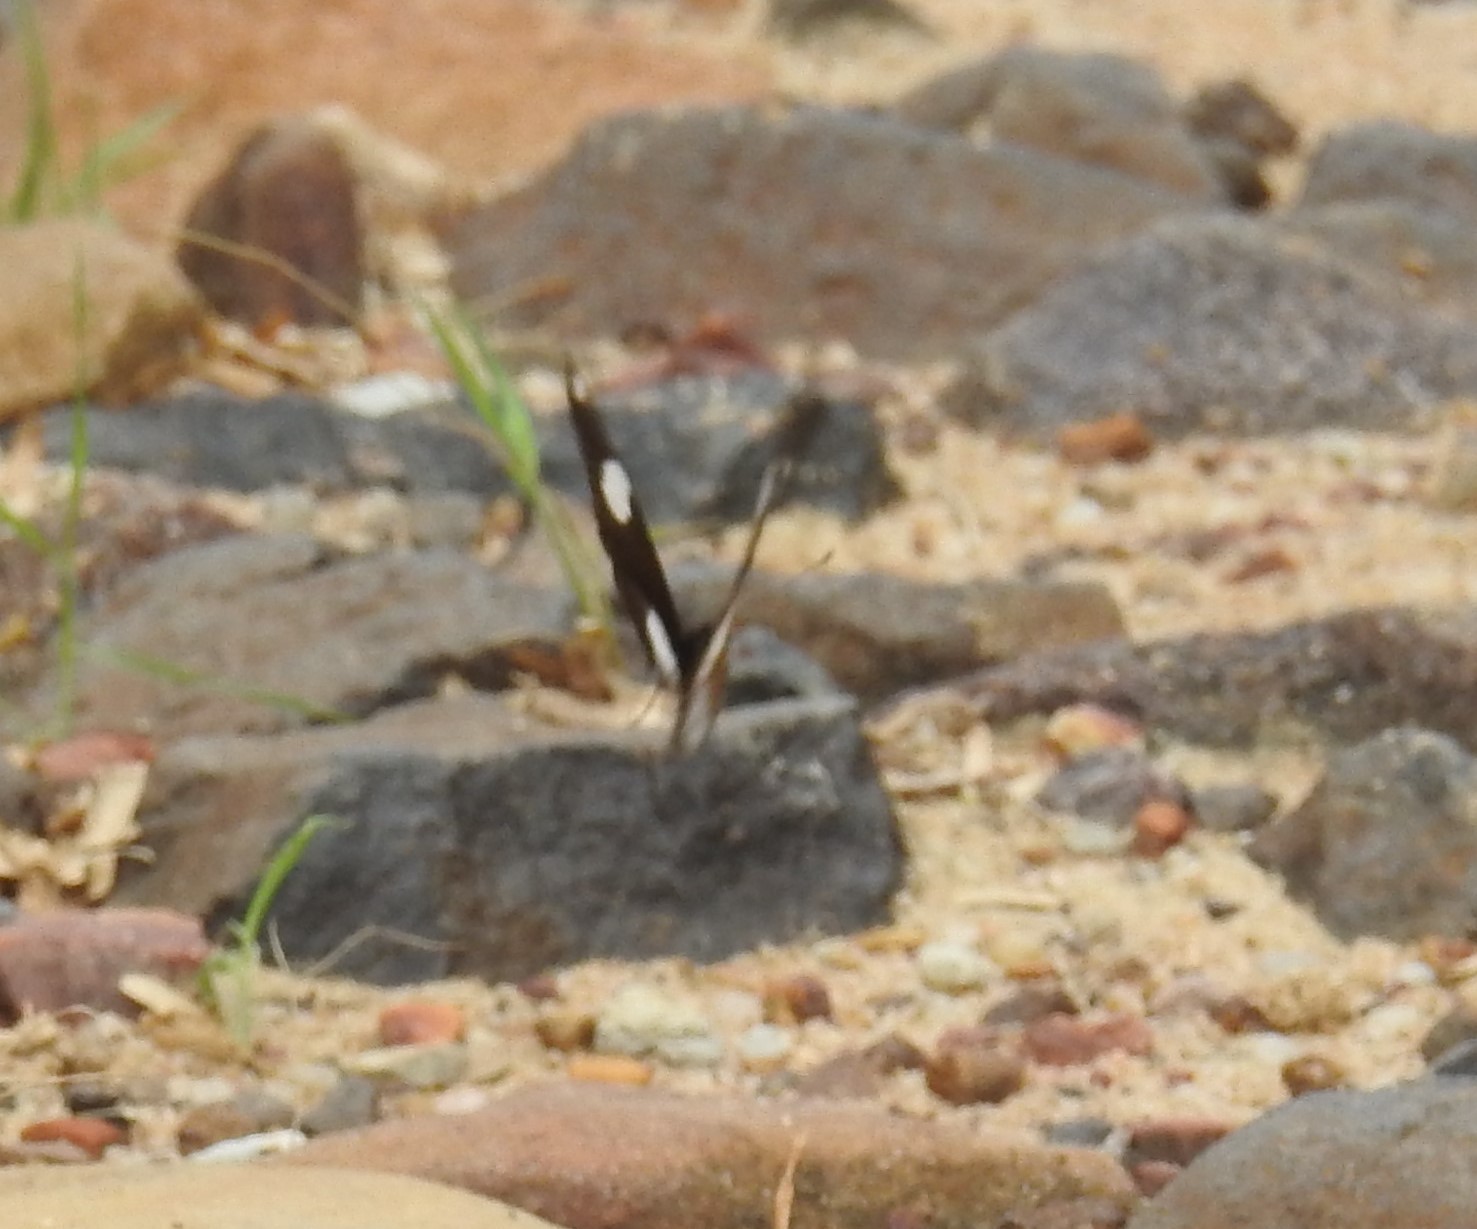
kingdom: Animalia
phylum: Arthropoda
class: Insecta
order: Lepidoptera
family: Nymphalidae
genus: Hypolimnas
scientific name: Hypolimnas misippus
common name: False plain tiger
